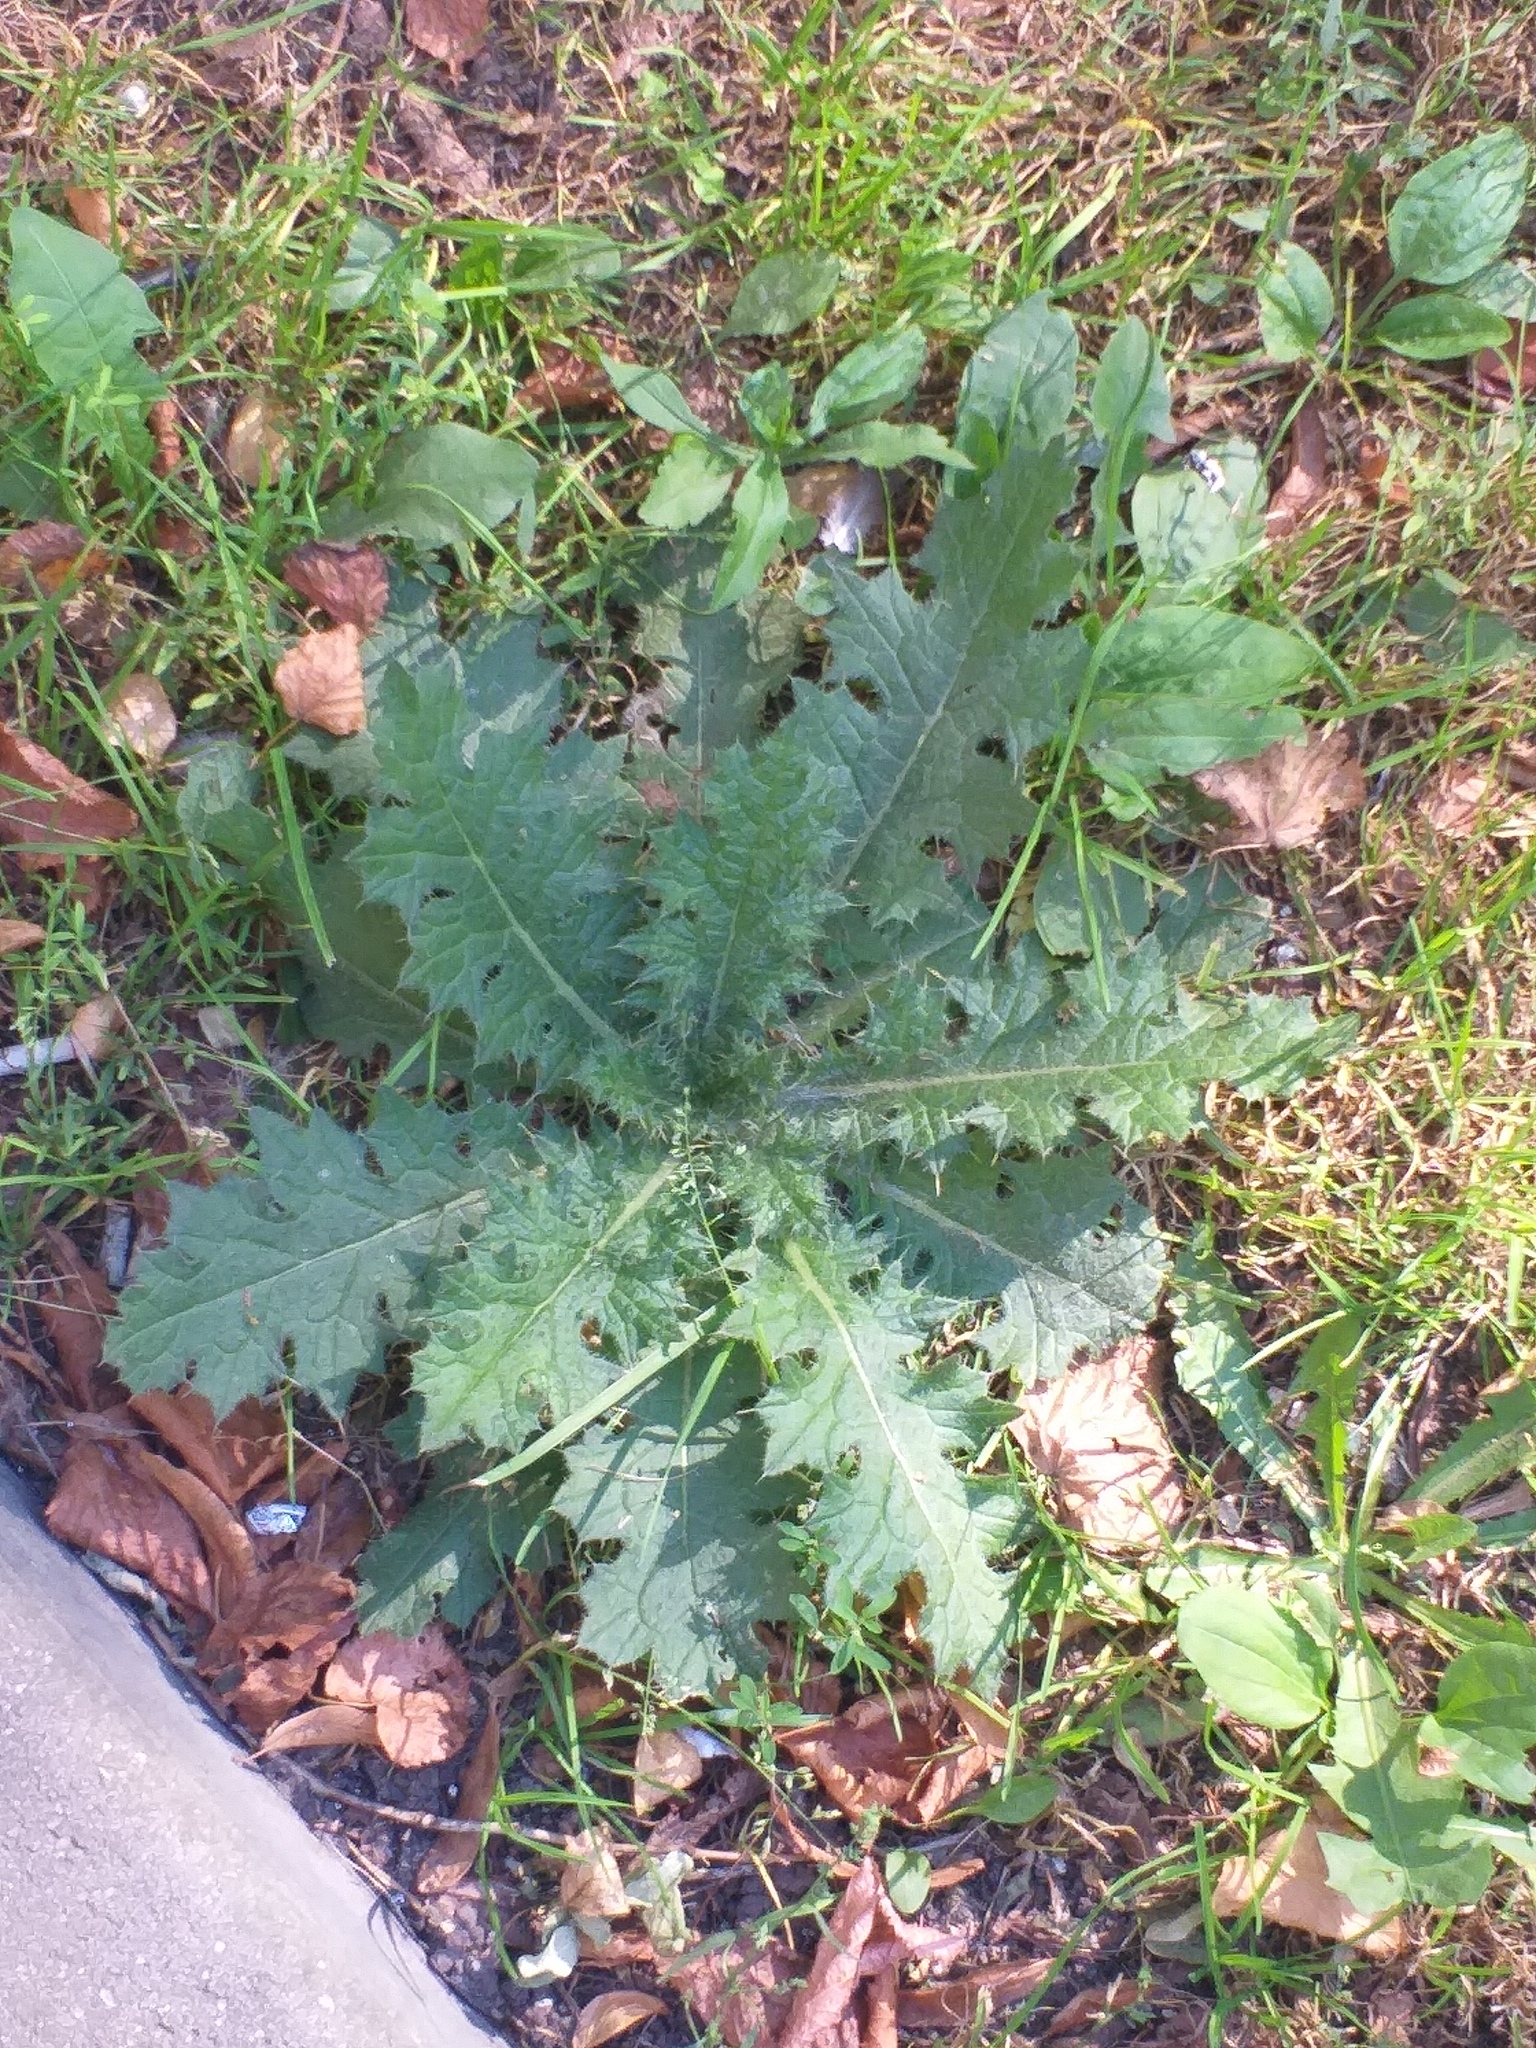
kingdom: Plantae
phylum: Tracheophyta
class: Magnoliopsida
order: Asterales
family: Asteraceae
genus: Cirsium
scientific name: Cirsium vulgare
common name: Bull thistle
